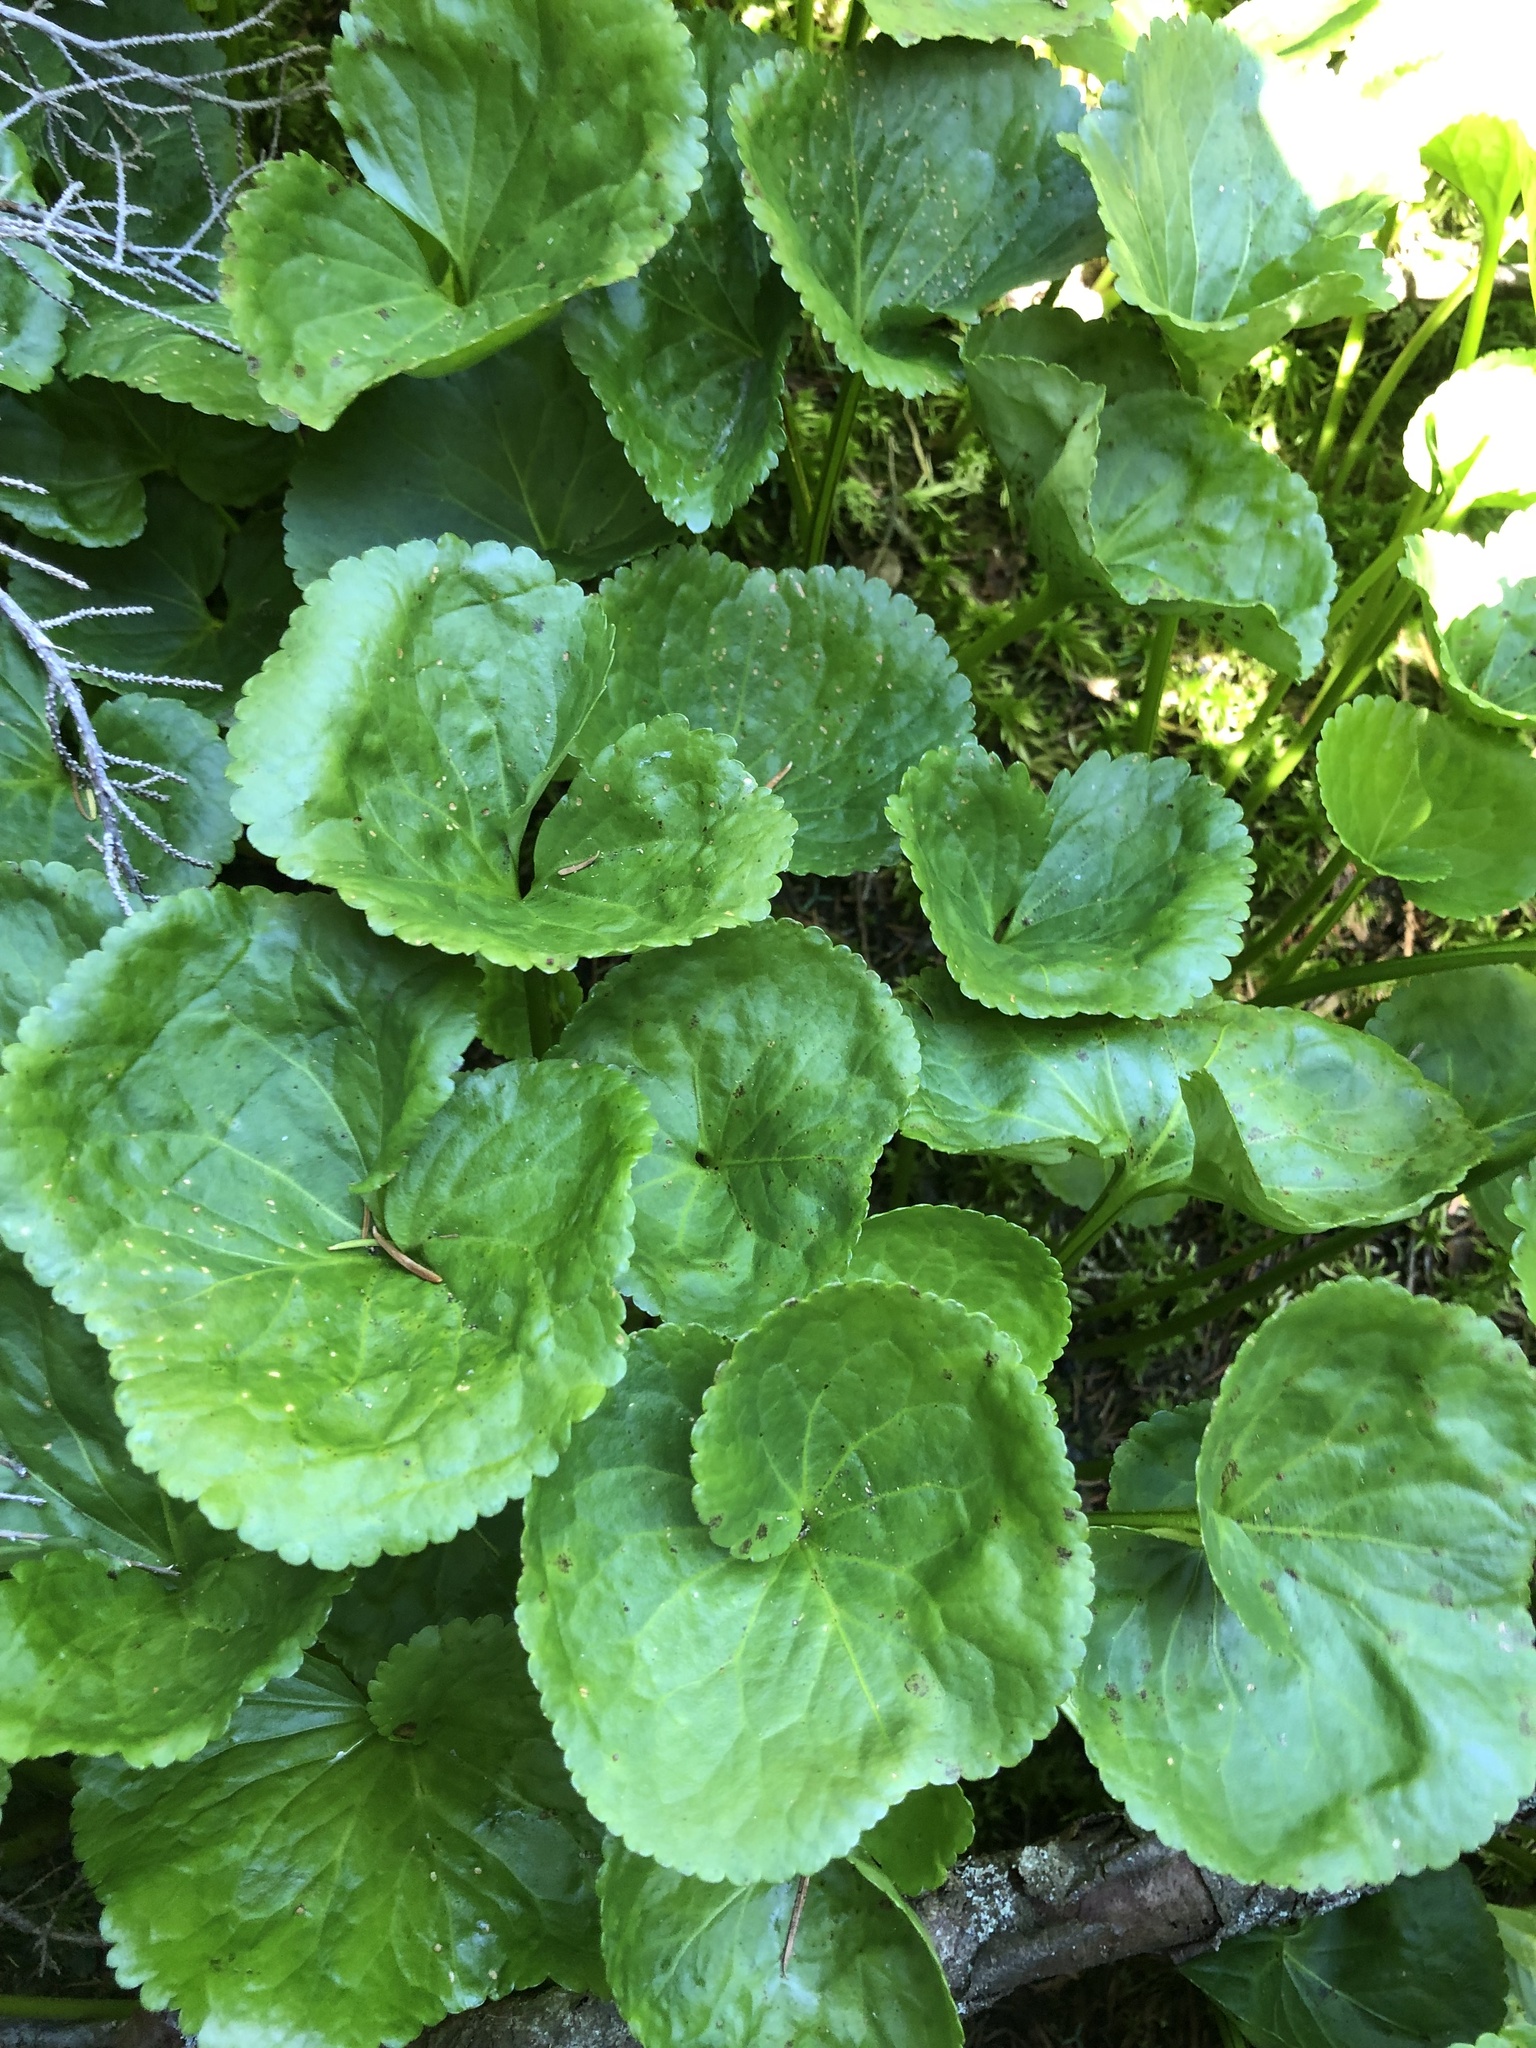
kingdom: Plantae
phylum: Tracheophyta
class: Magnoliopsida
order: Asterales
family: Menyanthaceae
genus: Nephrophyllidium
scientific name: Nephrophyllidium crista-galli
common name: Deer-cabbage
